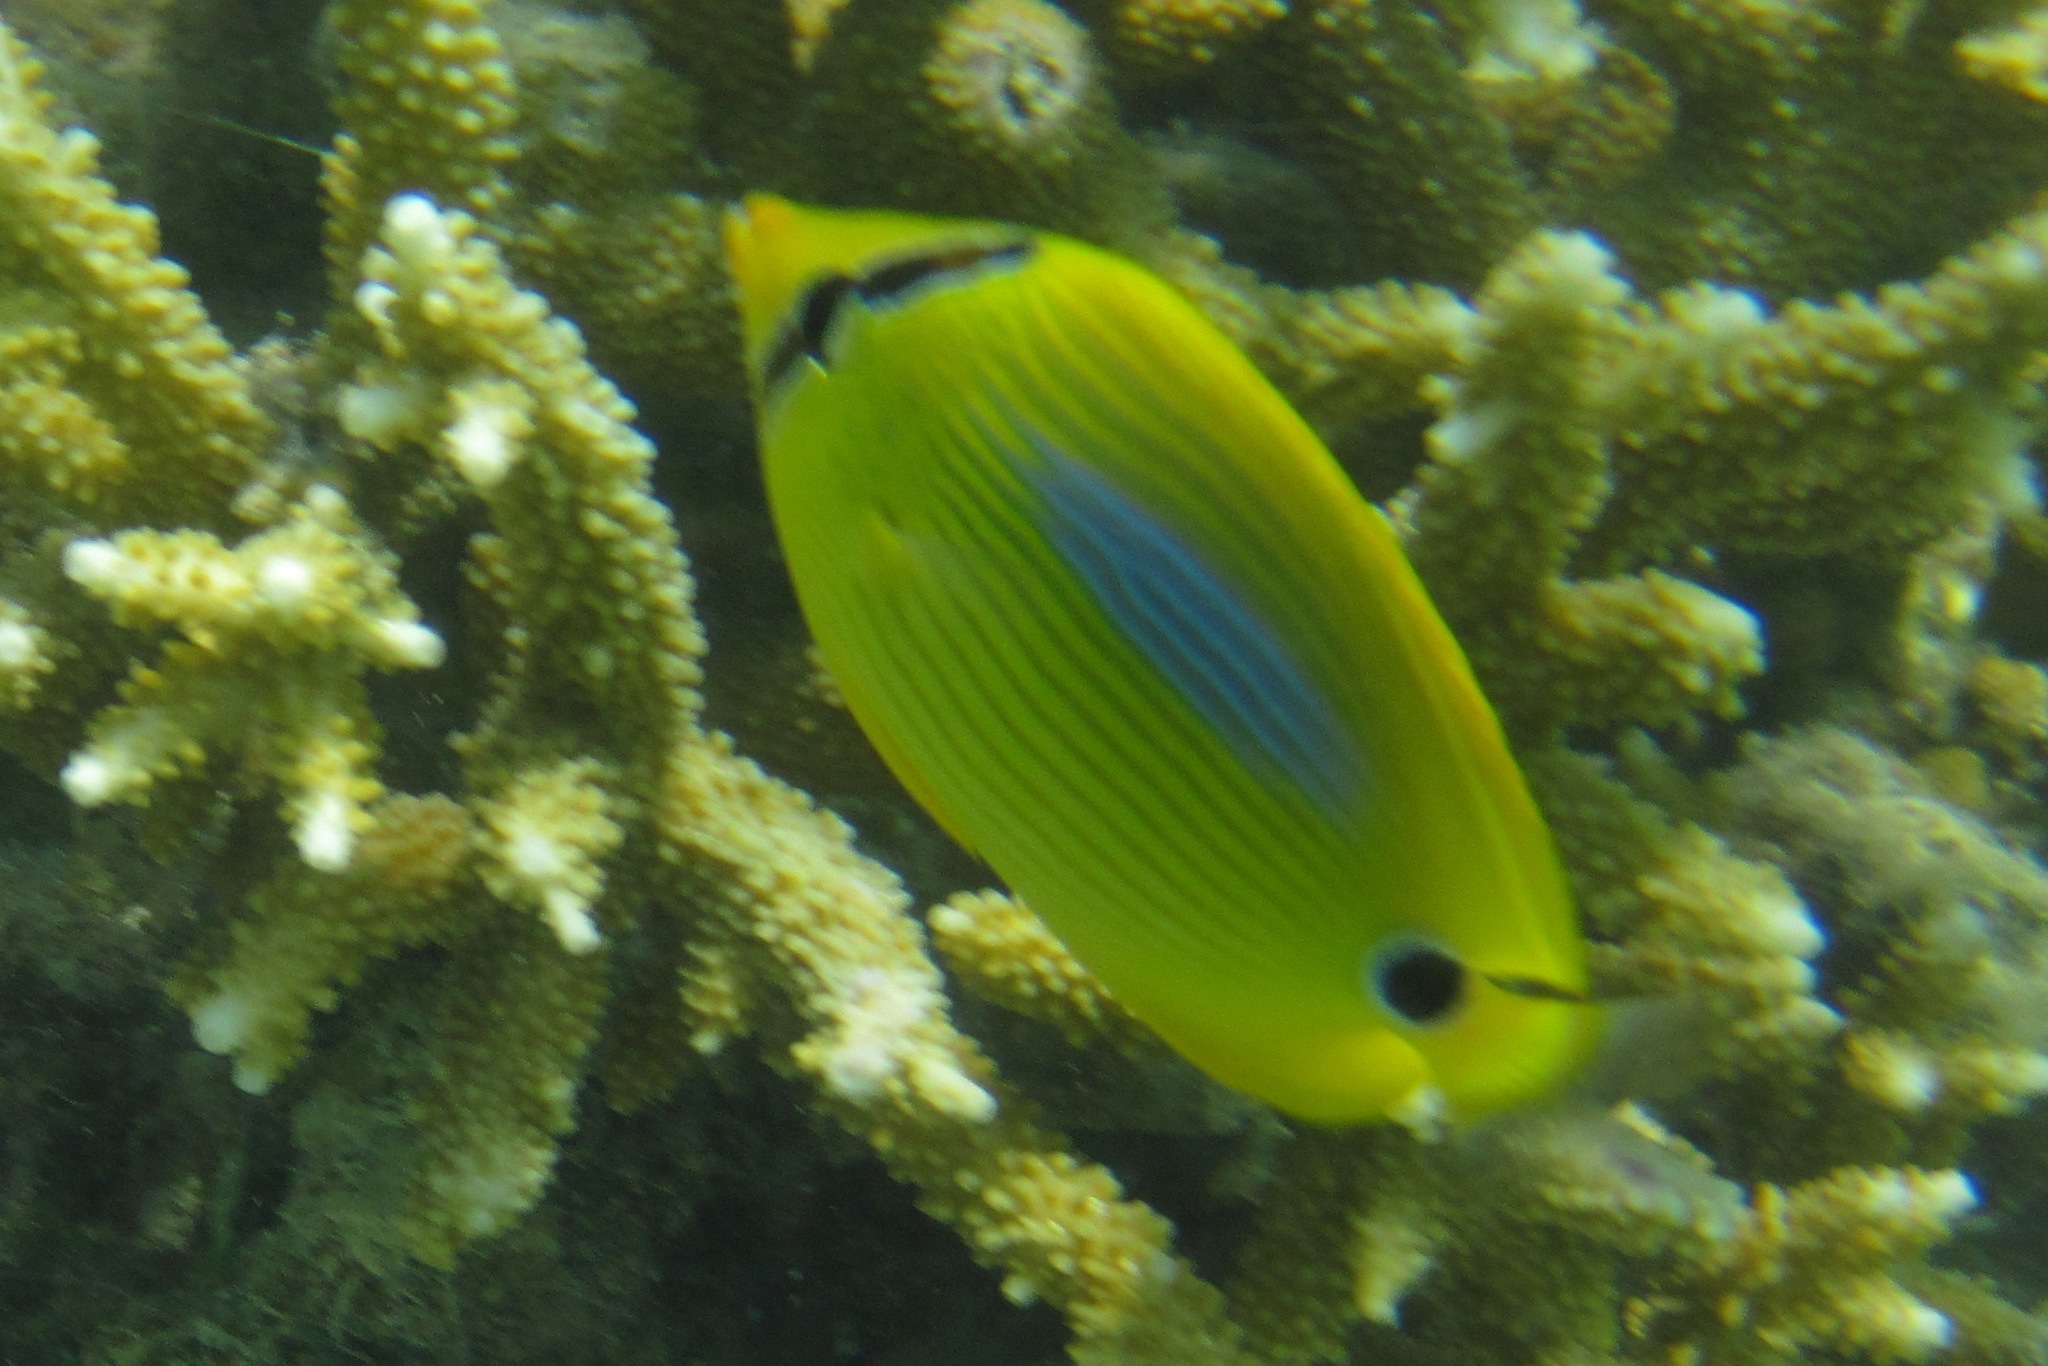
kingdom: Animalia
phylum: Chordata
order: Perciformes
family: Chaetodontidae
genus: Chaetodon
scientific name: Chaetodon plebeius
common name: Bluespot butterflyfish
